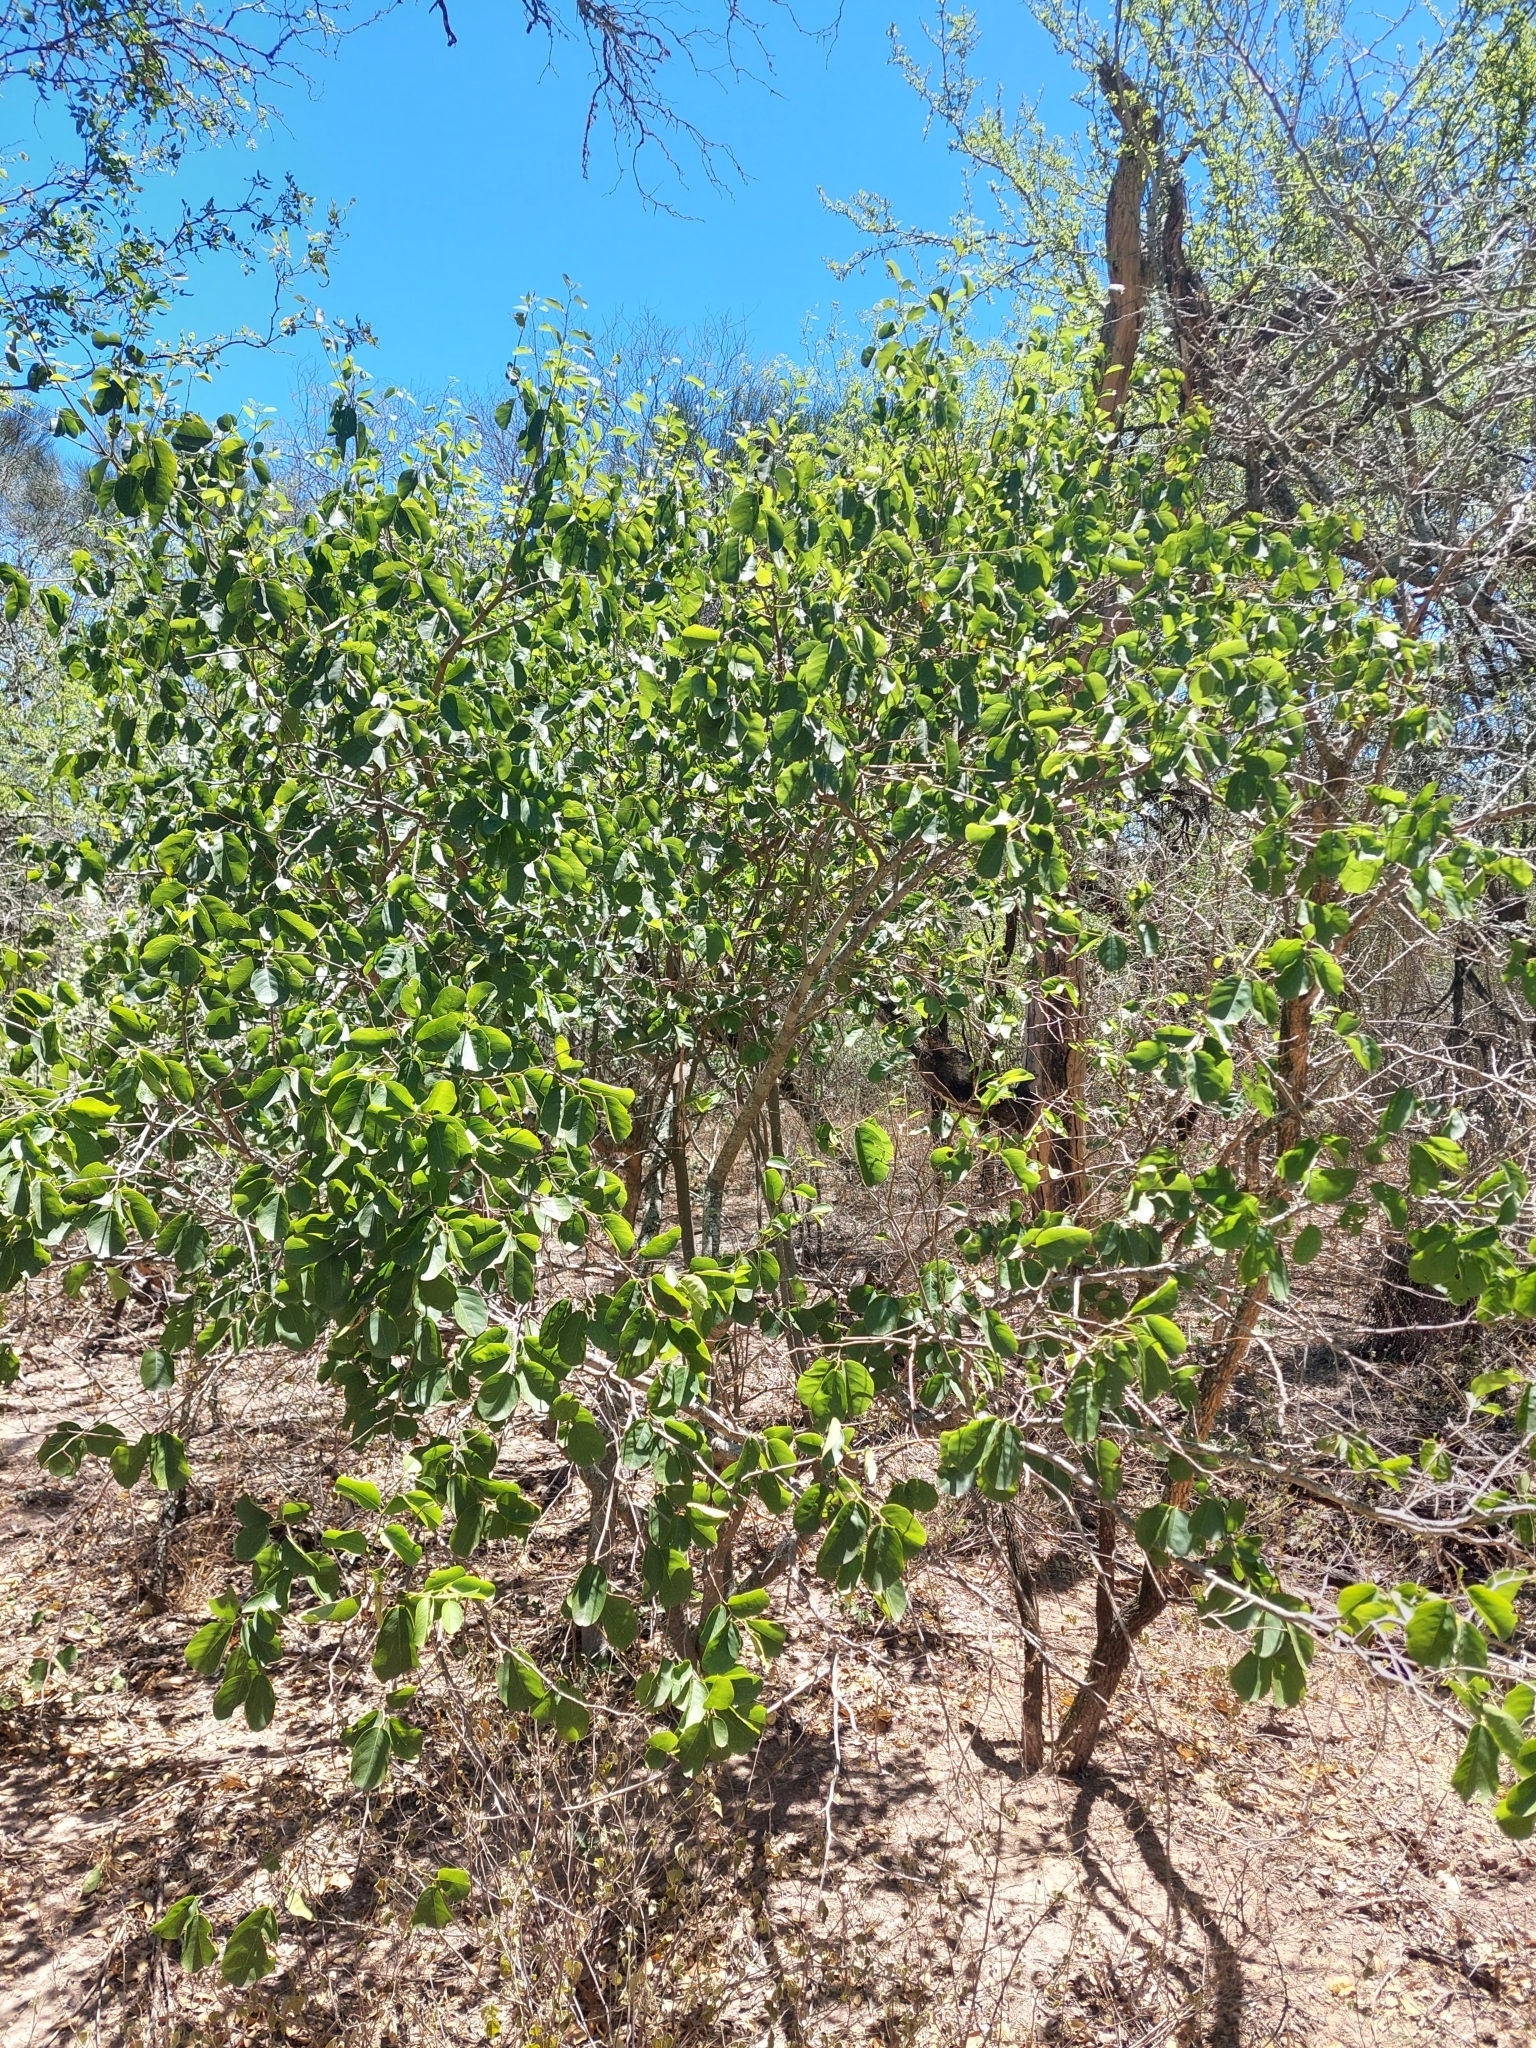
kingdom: Plantae
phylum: Tracheophyta
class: Magnoliopsida
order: Brassicales
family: Capparaceae
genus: Cynophalla
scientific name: Cynophalla retusa
